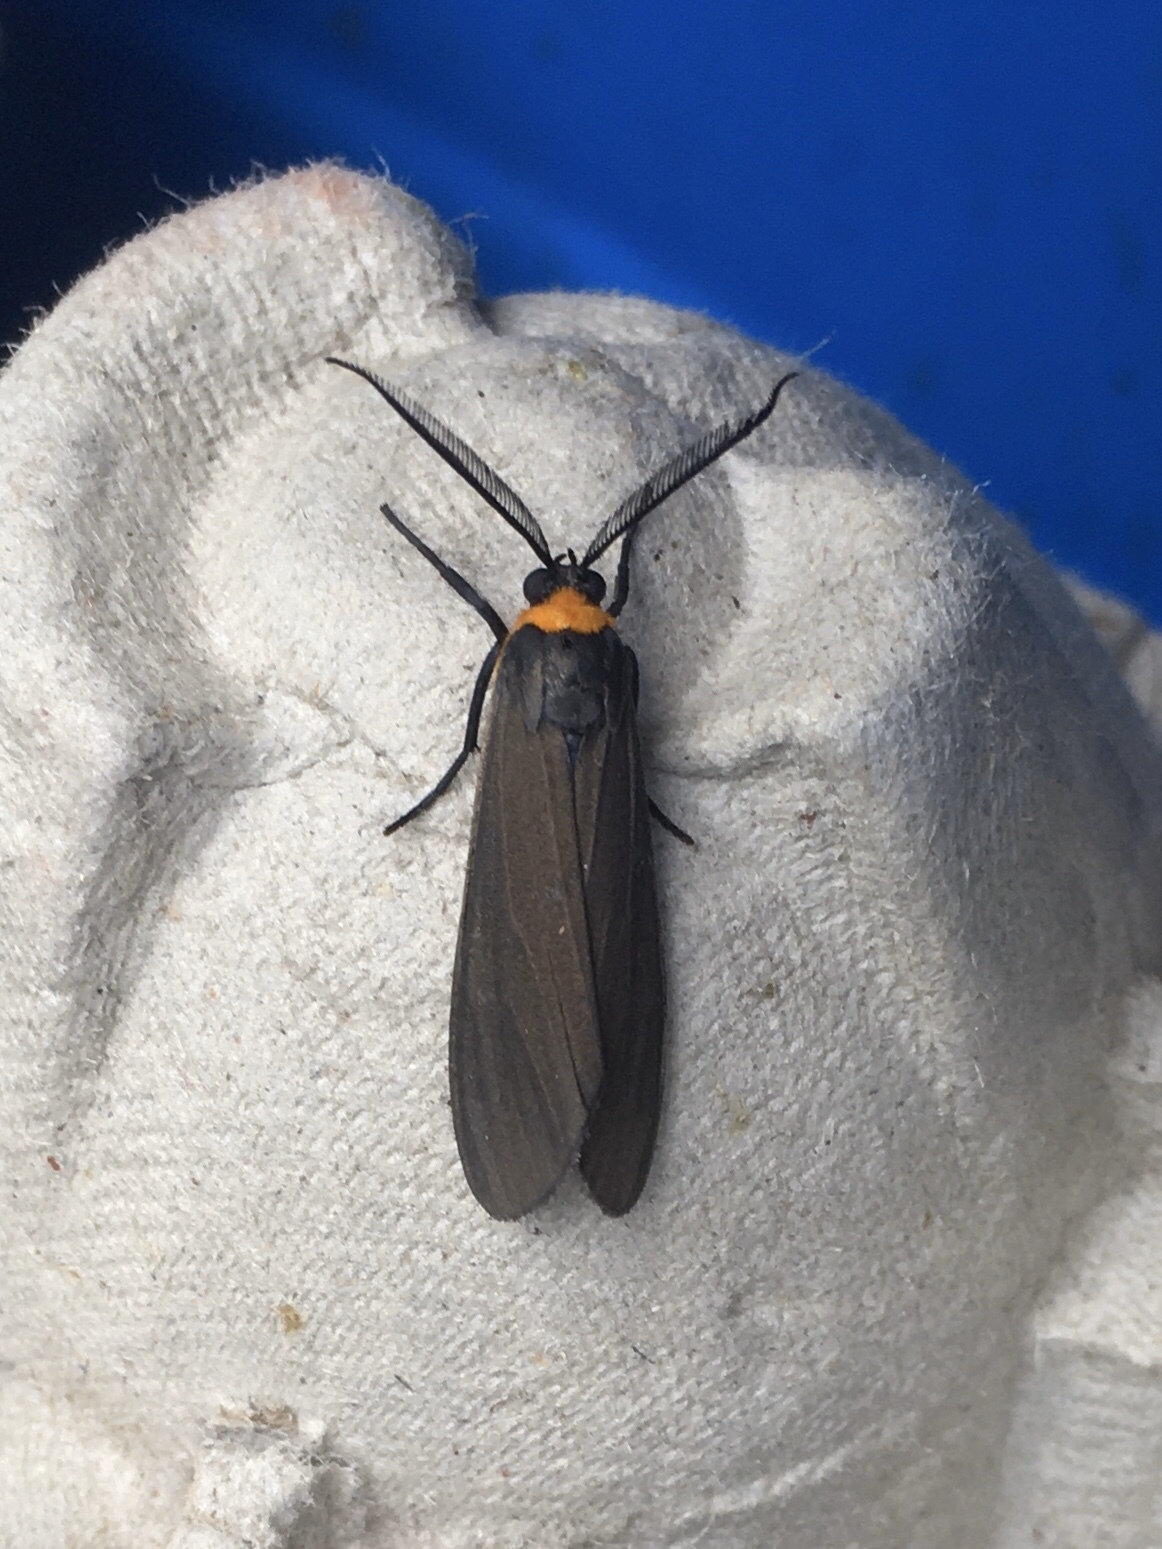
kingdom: Animalia
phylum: Arthropoda
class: Insecta
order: Lepidoptera
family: Erebidae
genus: Cisseps
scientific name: Cisseps fulvicollis
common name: Yellow-collared scape moth
